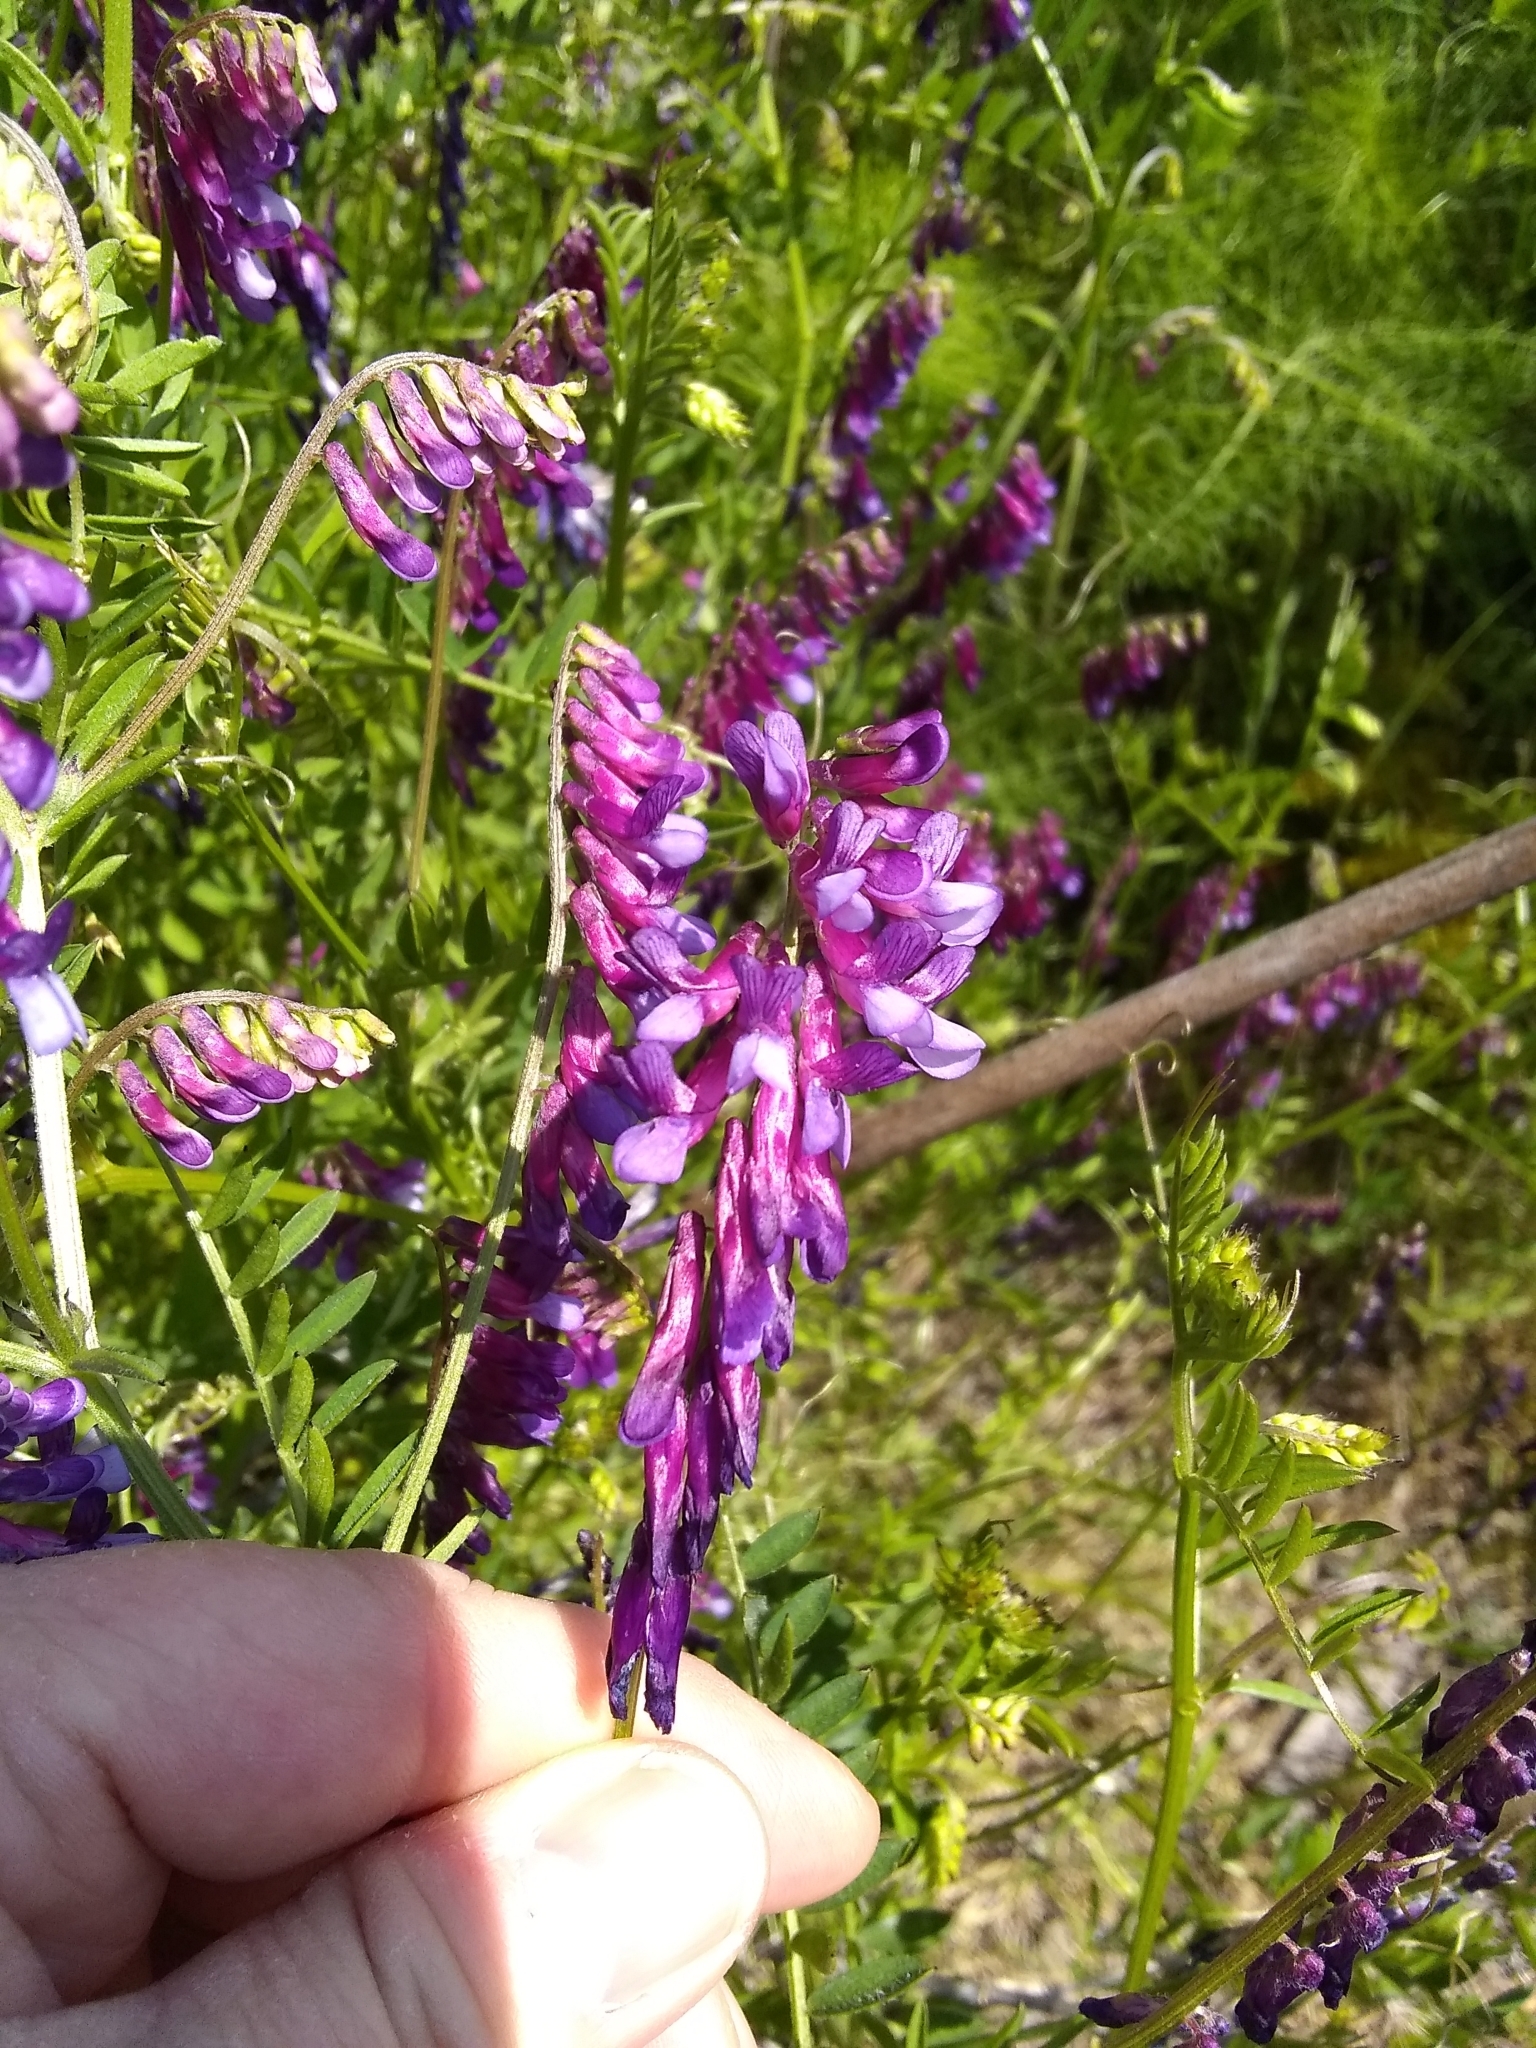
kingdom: Plantae
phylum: Tracheophyta
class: Magnoliopsida
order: Fabales
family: Fabaceae
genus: Vicia
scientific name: Vicia villosa
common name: Fodder vetch
